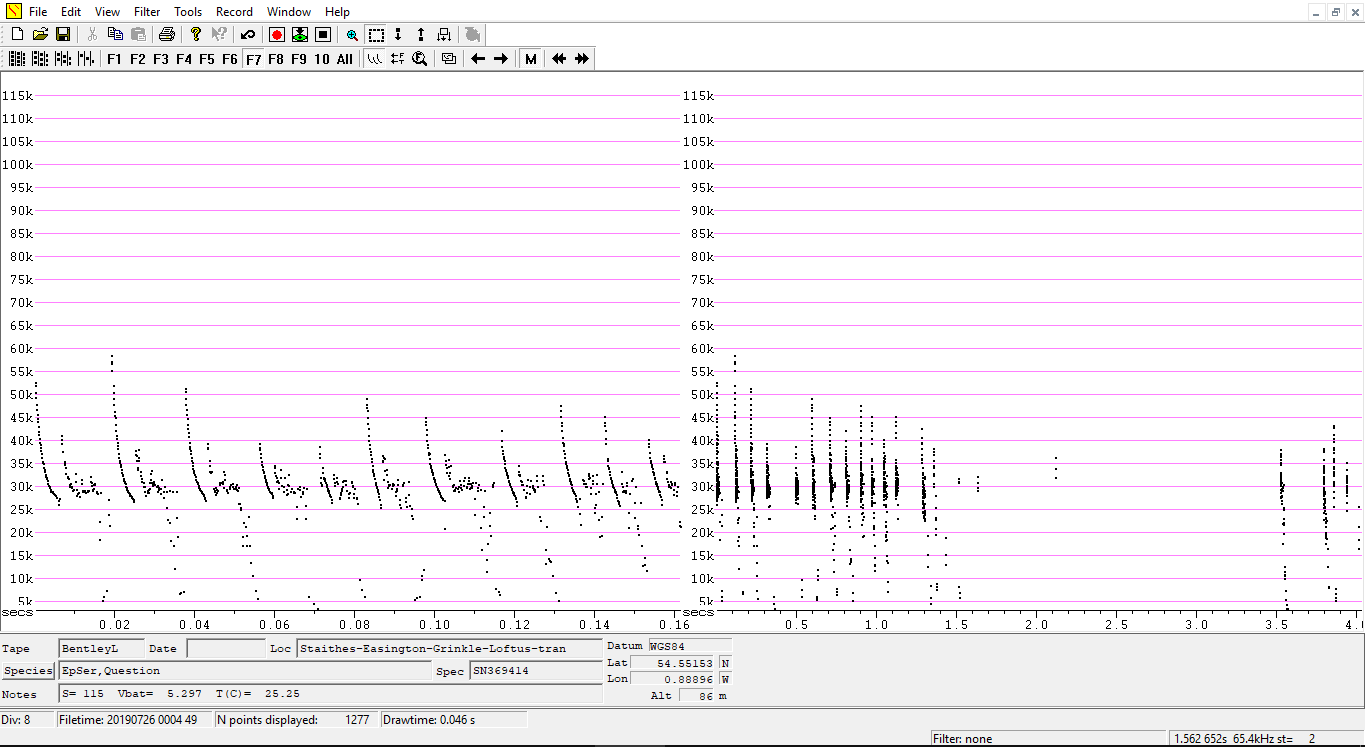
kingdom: Animalia
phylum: Chordata
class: Mammalia
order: Chiroptera
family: Vespertilionidae
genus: Eptesicus
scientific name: Eptesicus serotinus
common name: Serotine
